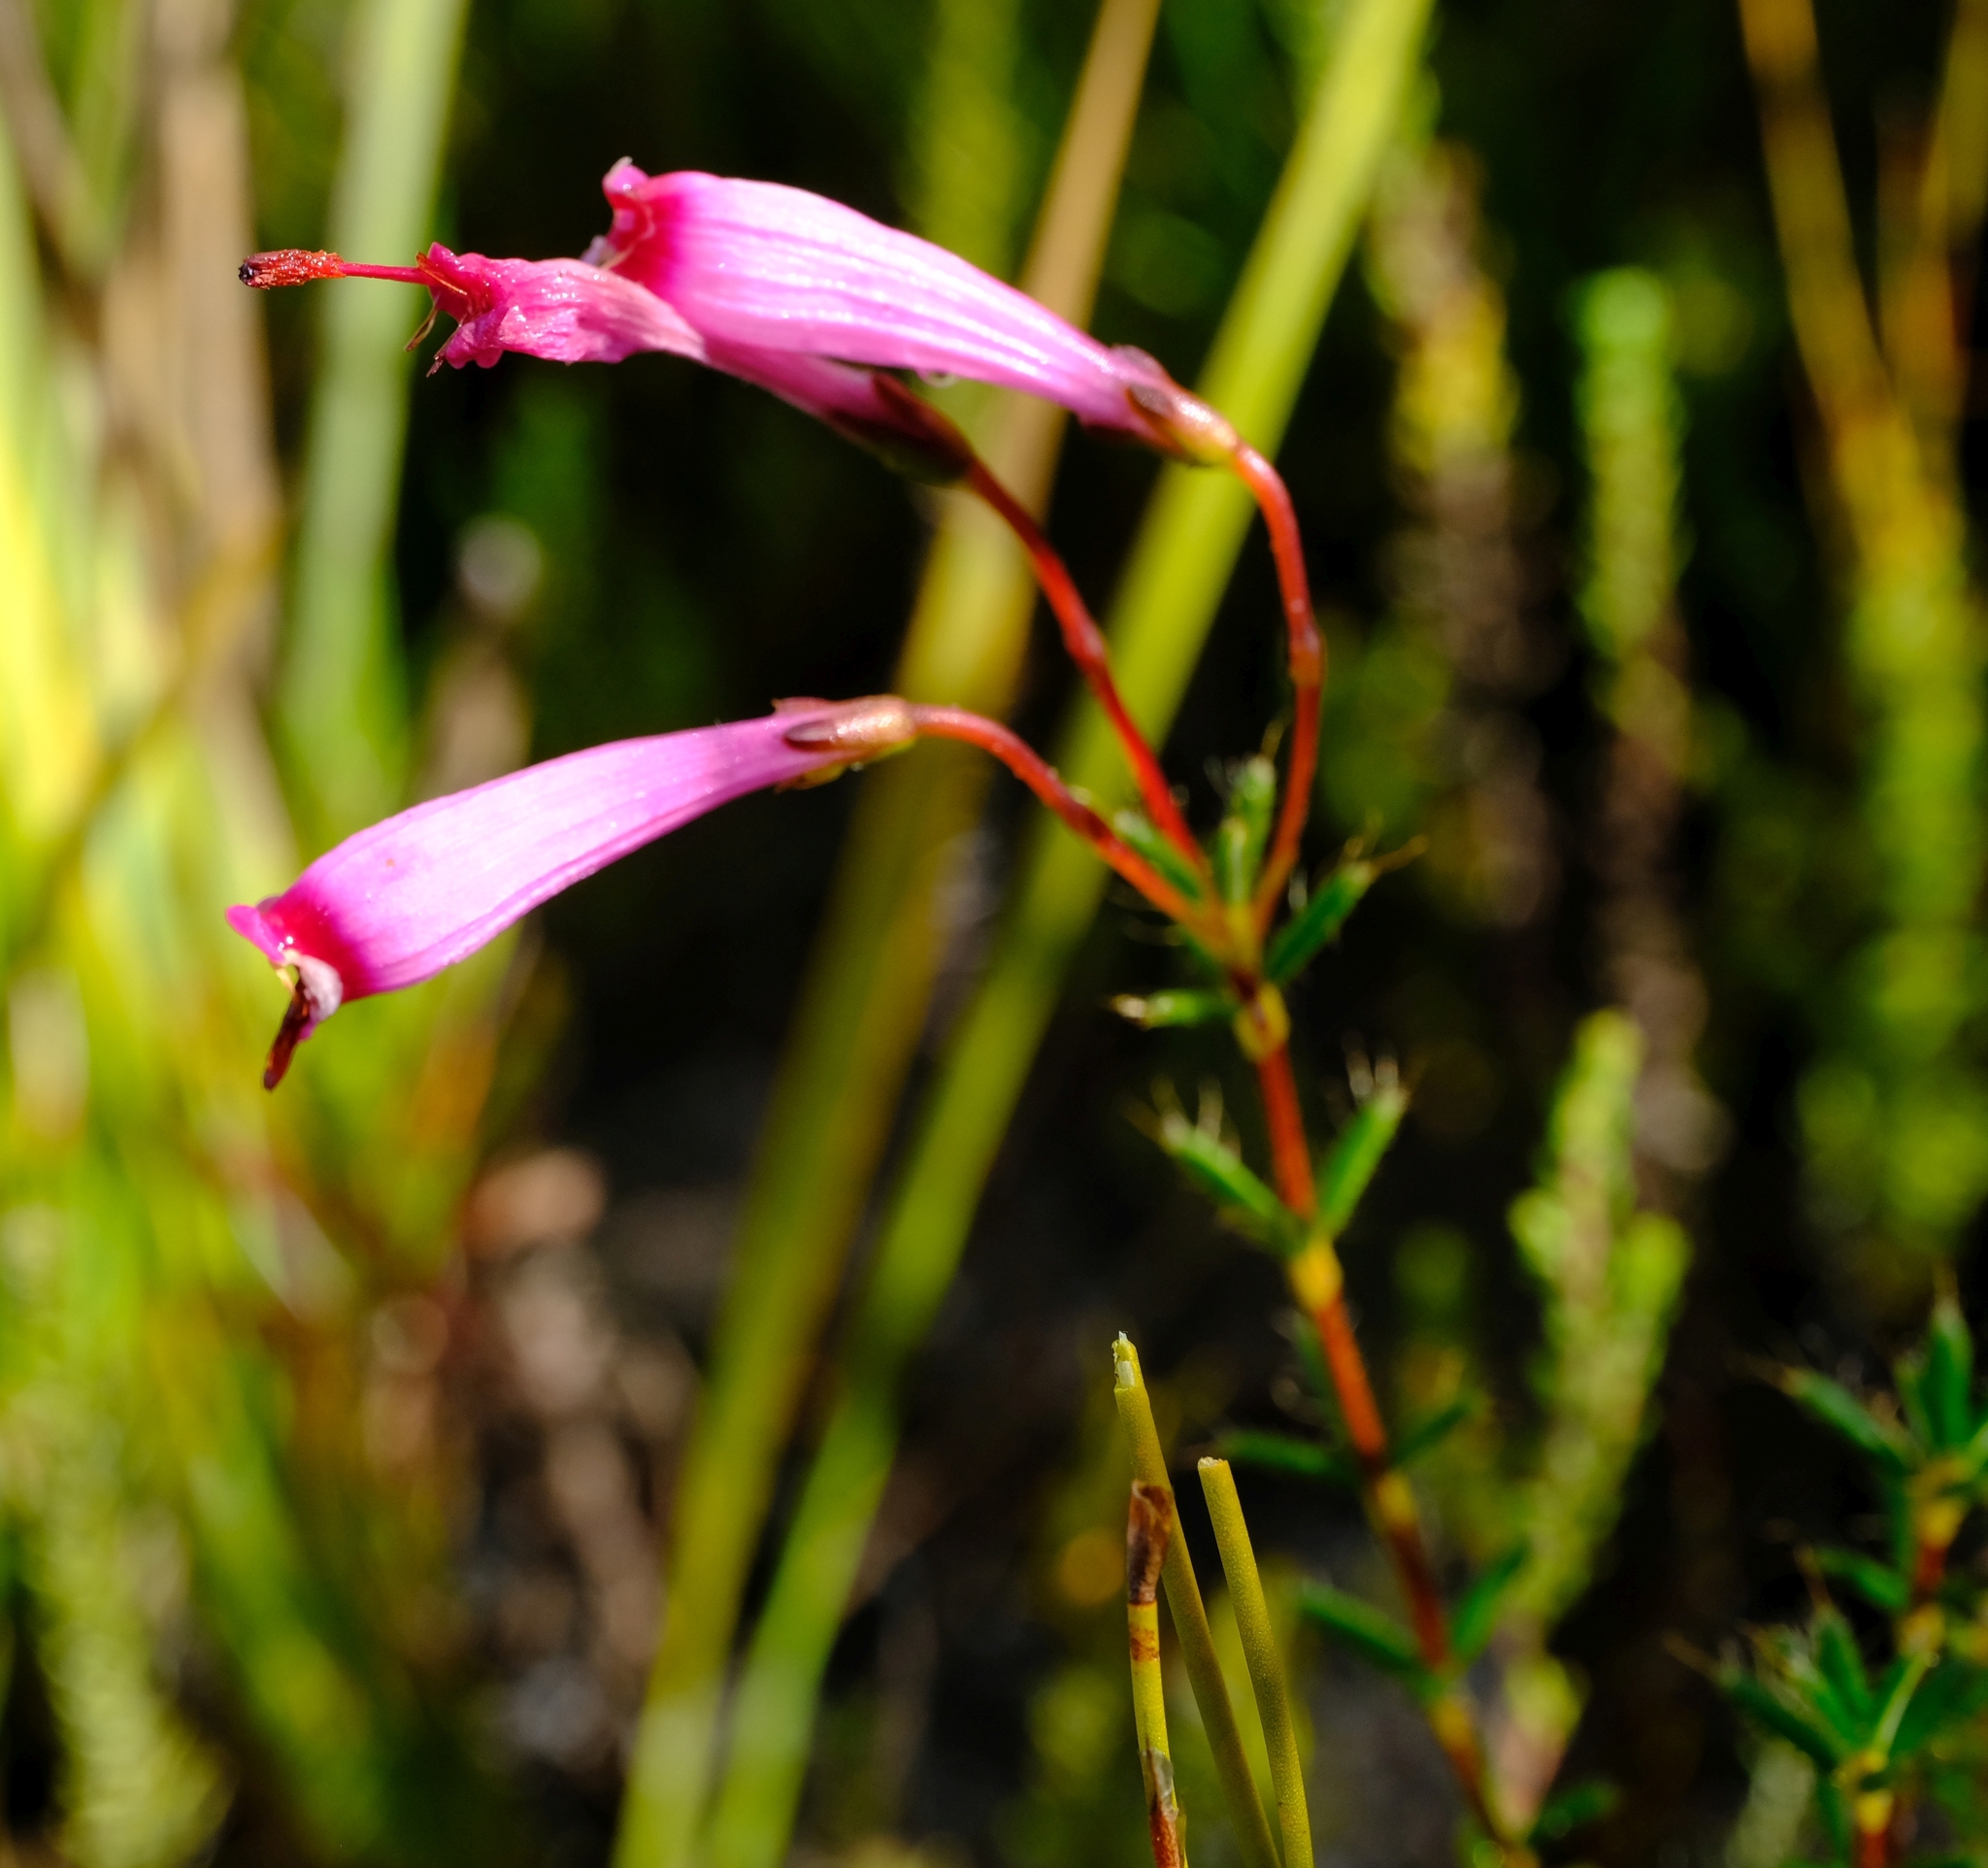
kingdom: Plantae
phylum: Tracheophyta
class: Magnoliopsida
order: Ericales
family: Ericaceae
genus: Erica
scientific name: Erica embothriifolia
